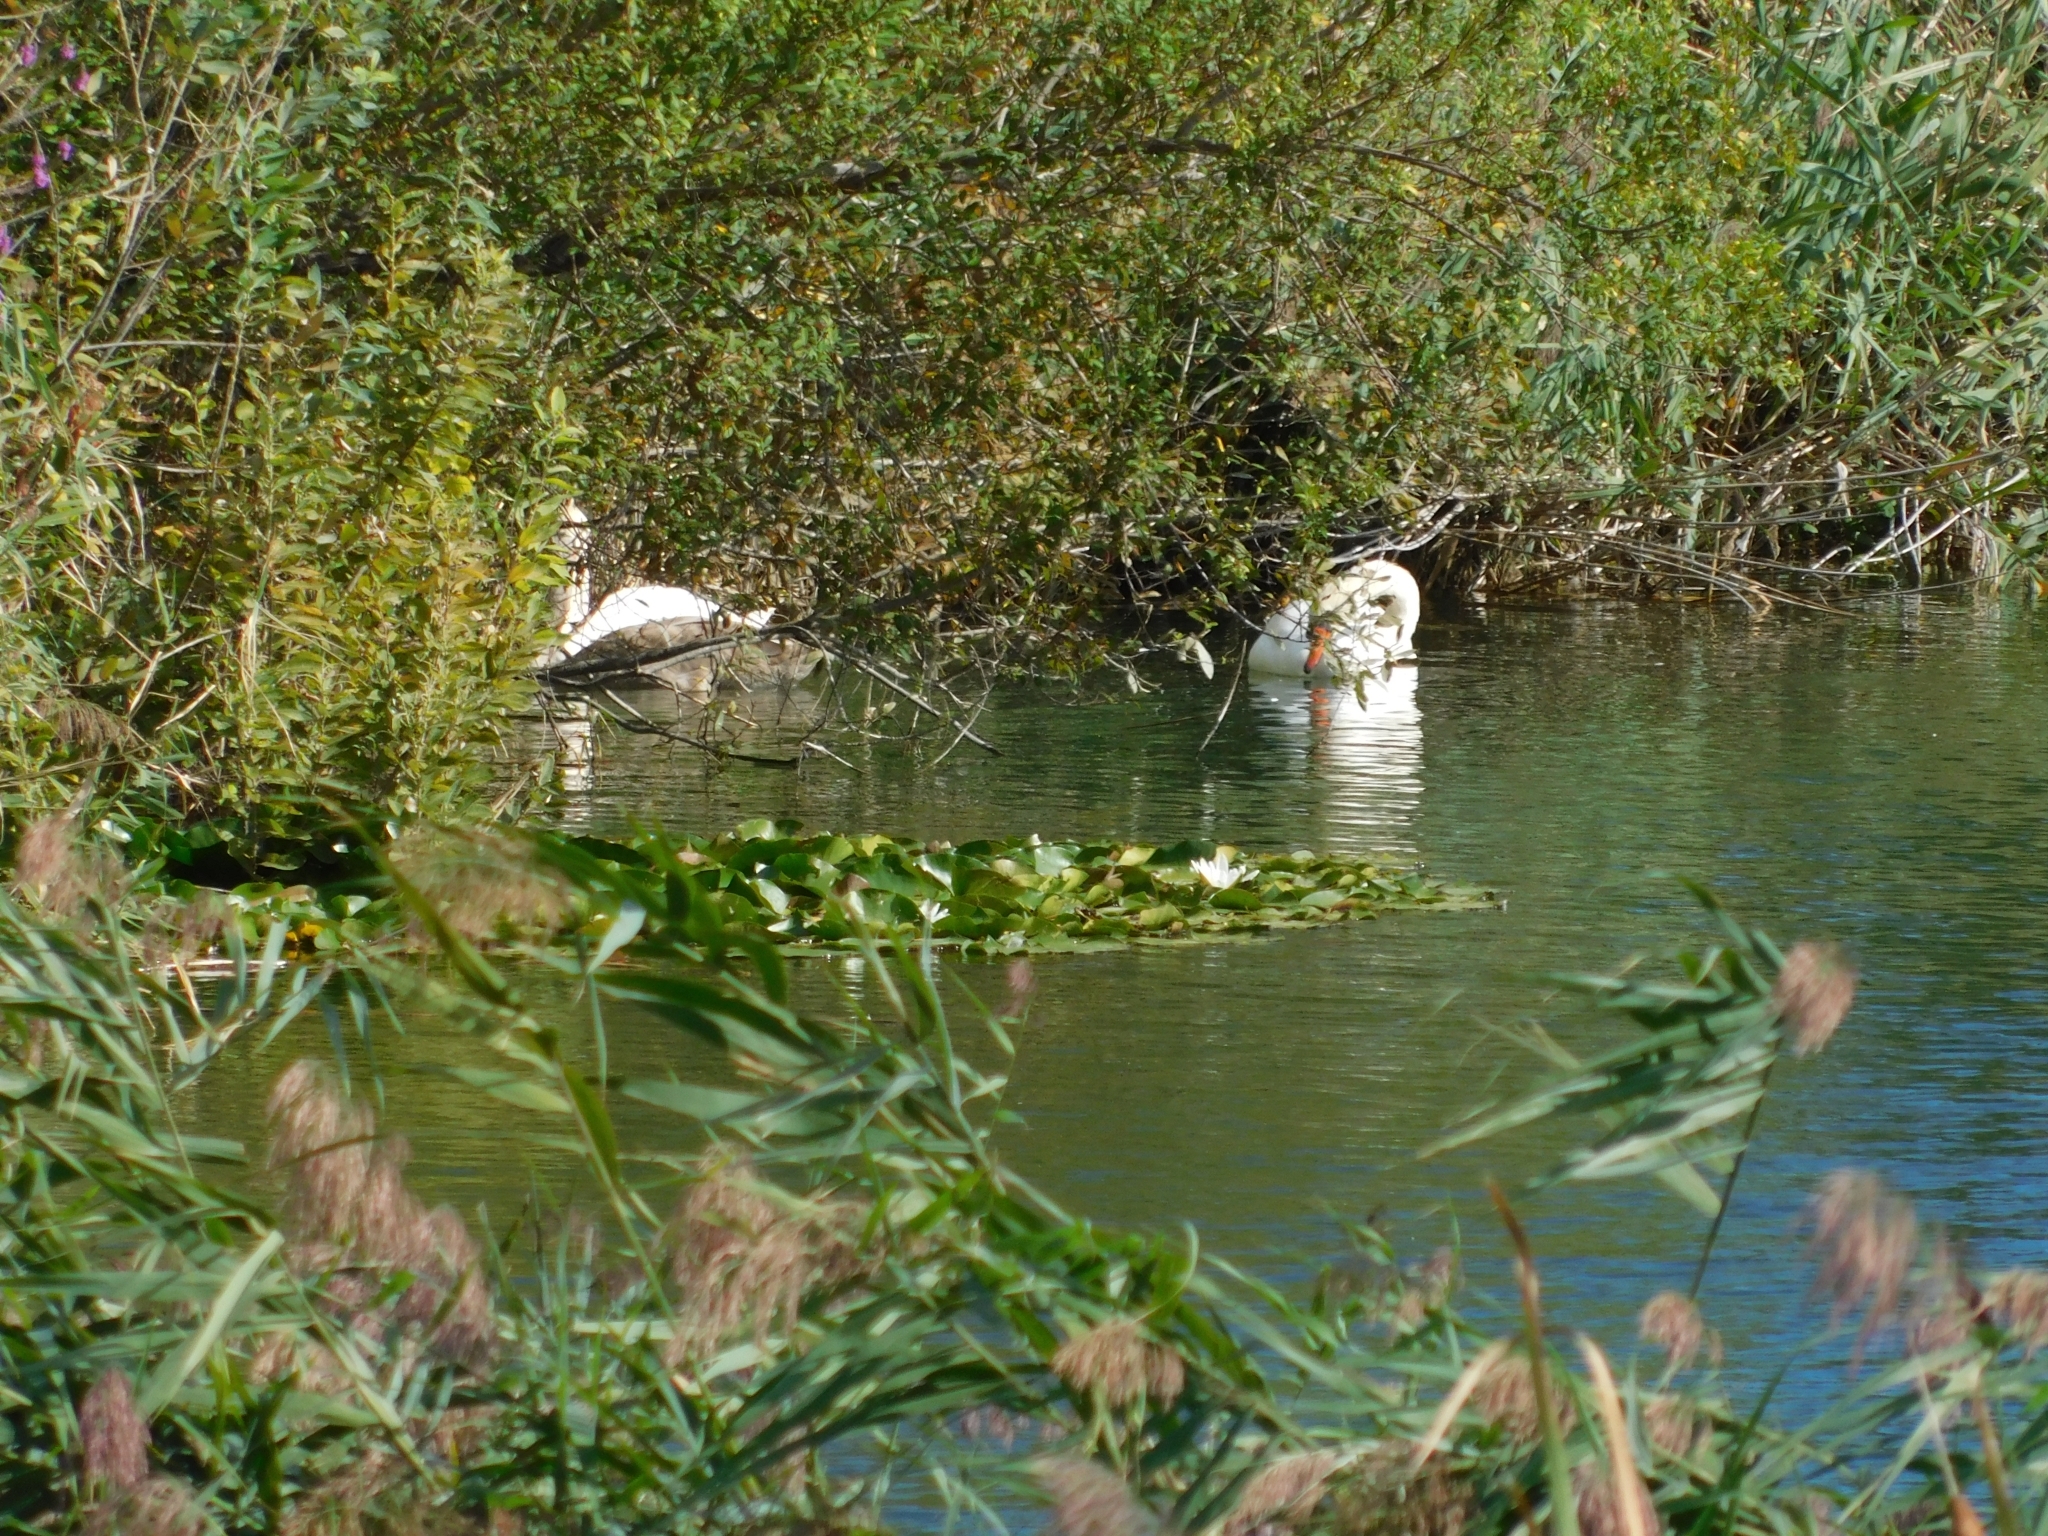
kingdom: Animalia
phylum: Chordata
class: Aves
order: Anseriformes
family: Anatidae
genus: Cygnus
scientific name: Cygnus olor
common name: Mute swan
